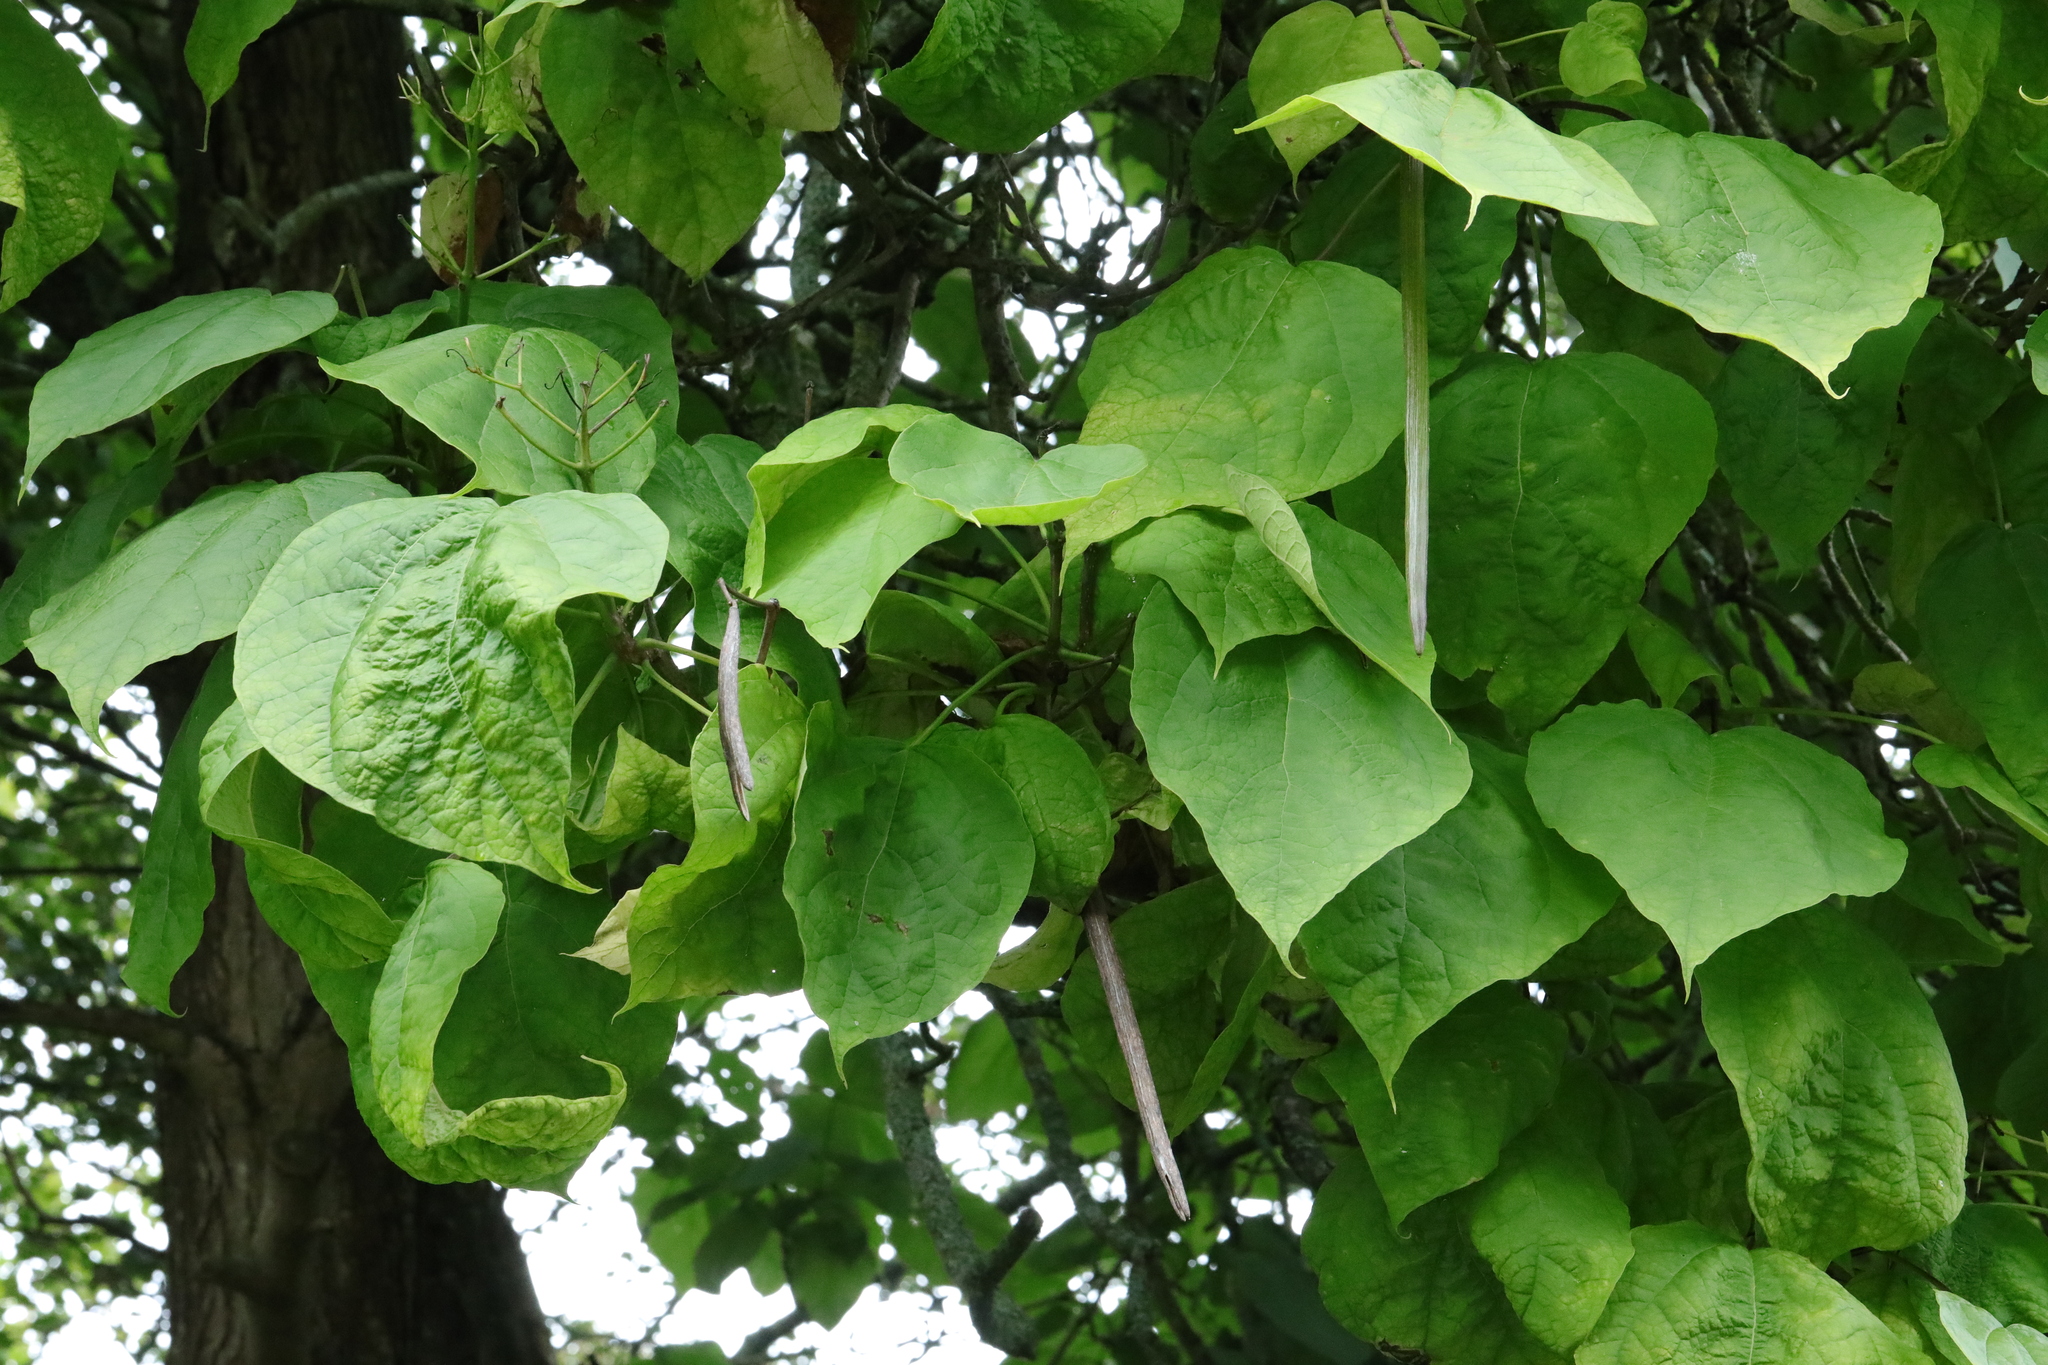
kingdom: Plantae
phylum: Tracheophyta
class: Magnoliopsida
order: Lamiales
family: Bignoniaceae
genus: Catalpa
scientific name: Catalpa bignonioides
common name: Southern catalpa
